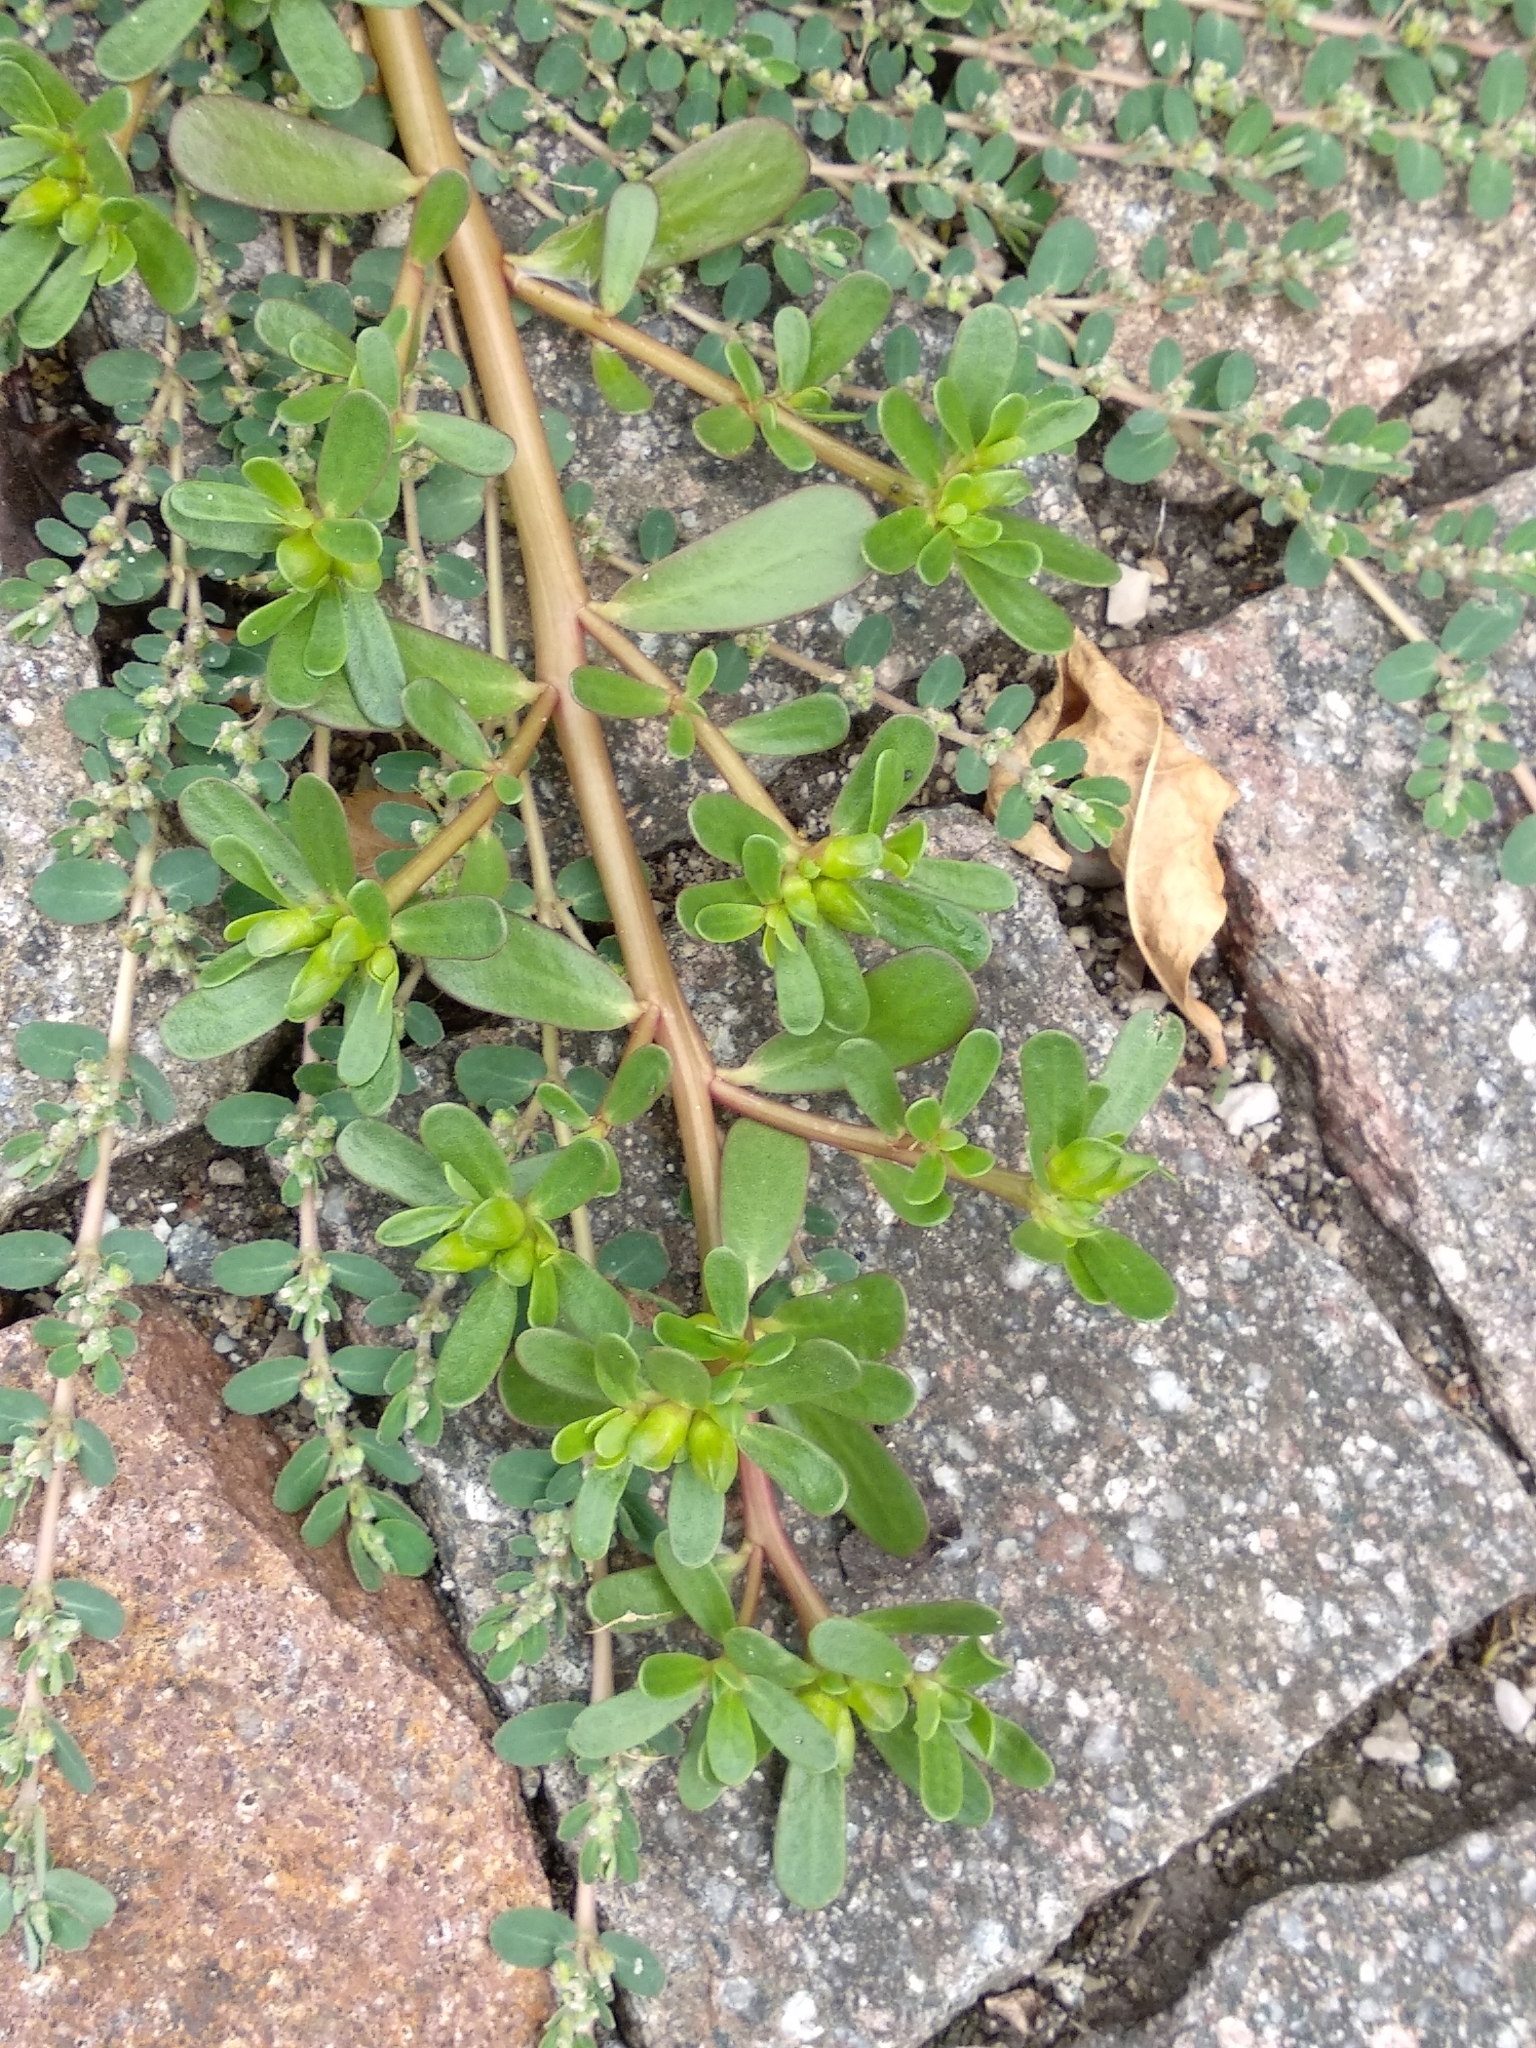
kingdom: Plantae
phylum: Tracheophyta
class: Magnoliopsida
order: Malpighiales
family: Euphorbiaceae
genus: Euphorbia
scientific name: Euphorbia prostrata
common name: Prostrate sandmat
